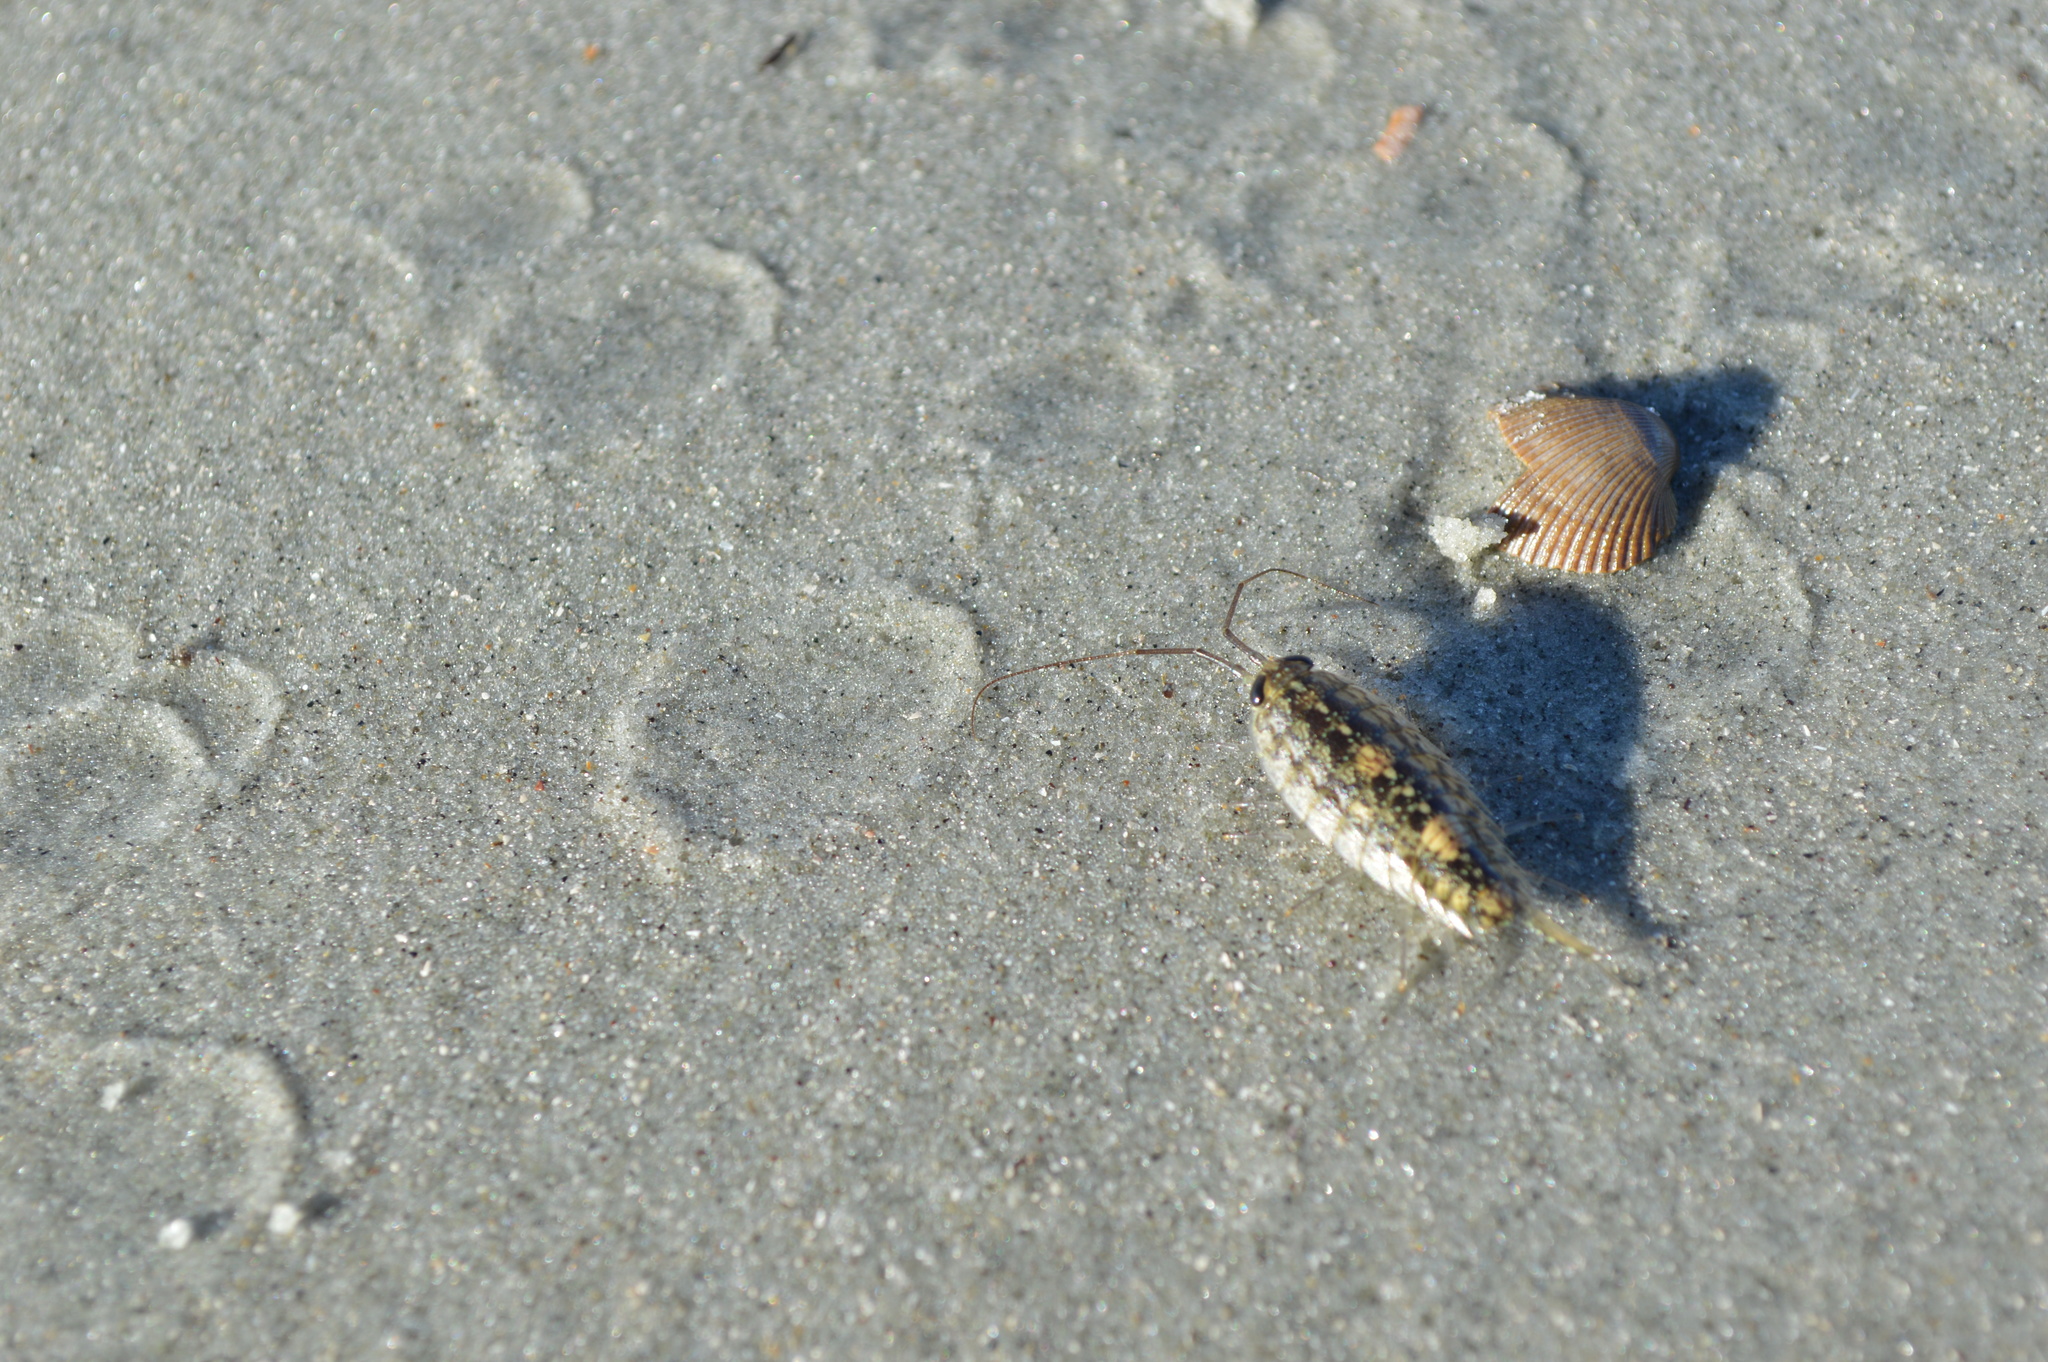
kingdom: Animalia
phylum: Arthropoda
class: Malacostraca
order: Isopoda
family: Ligiidae
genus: Ligia
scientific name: Ligia exotica
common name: Wharf roach
